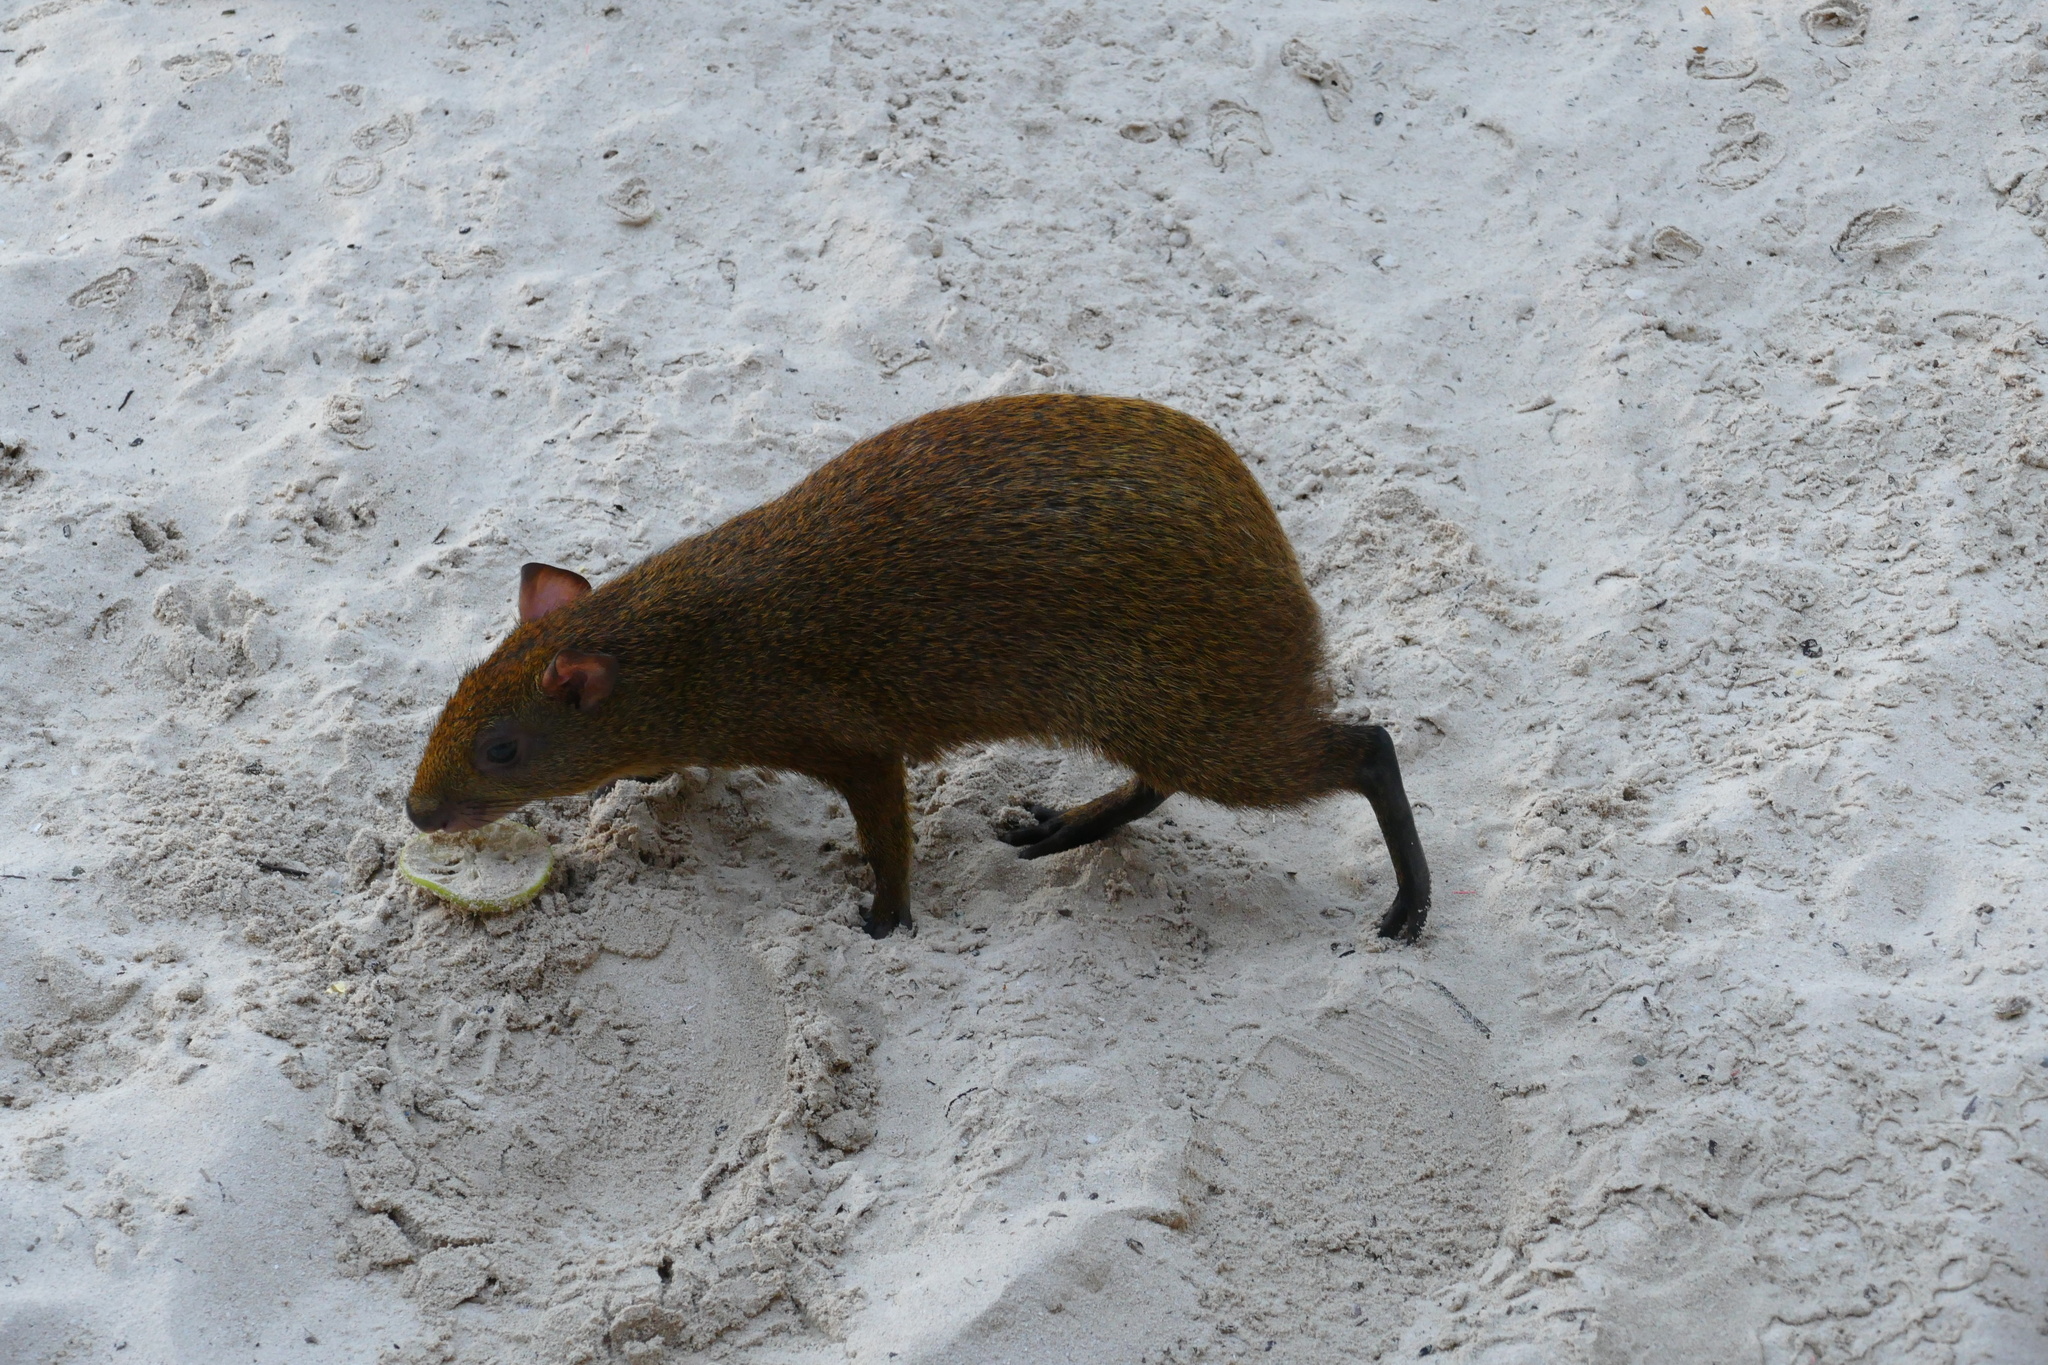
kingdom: Animalia
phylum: Chordata
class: Mammalia
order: Rodentia
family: Dasyproctidae
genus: Dasyprocta
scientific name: Dasyprocta punctata
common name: Central american agouti
